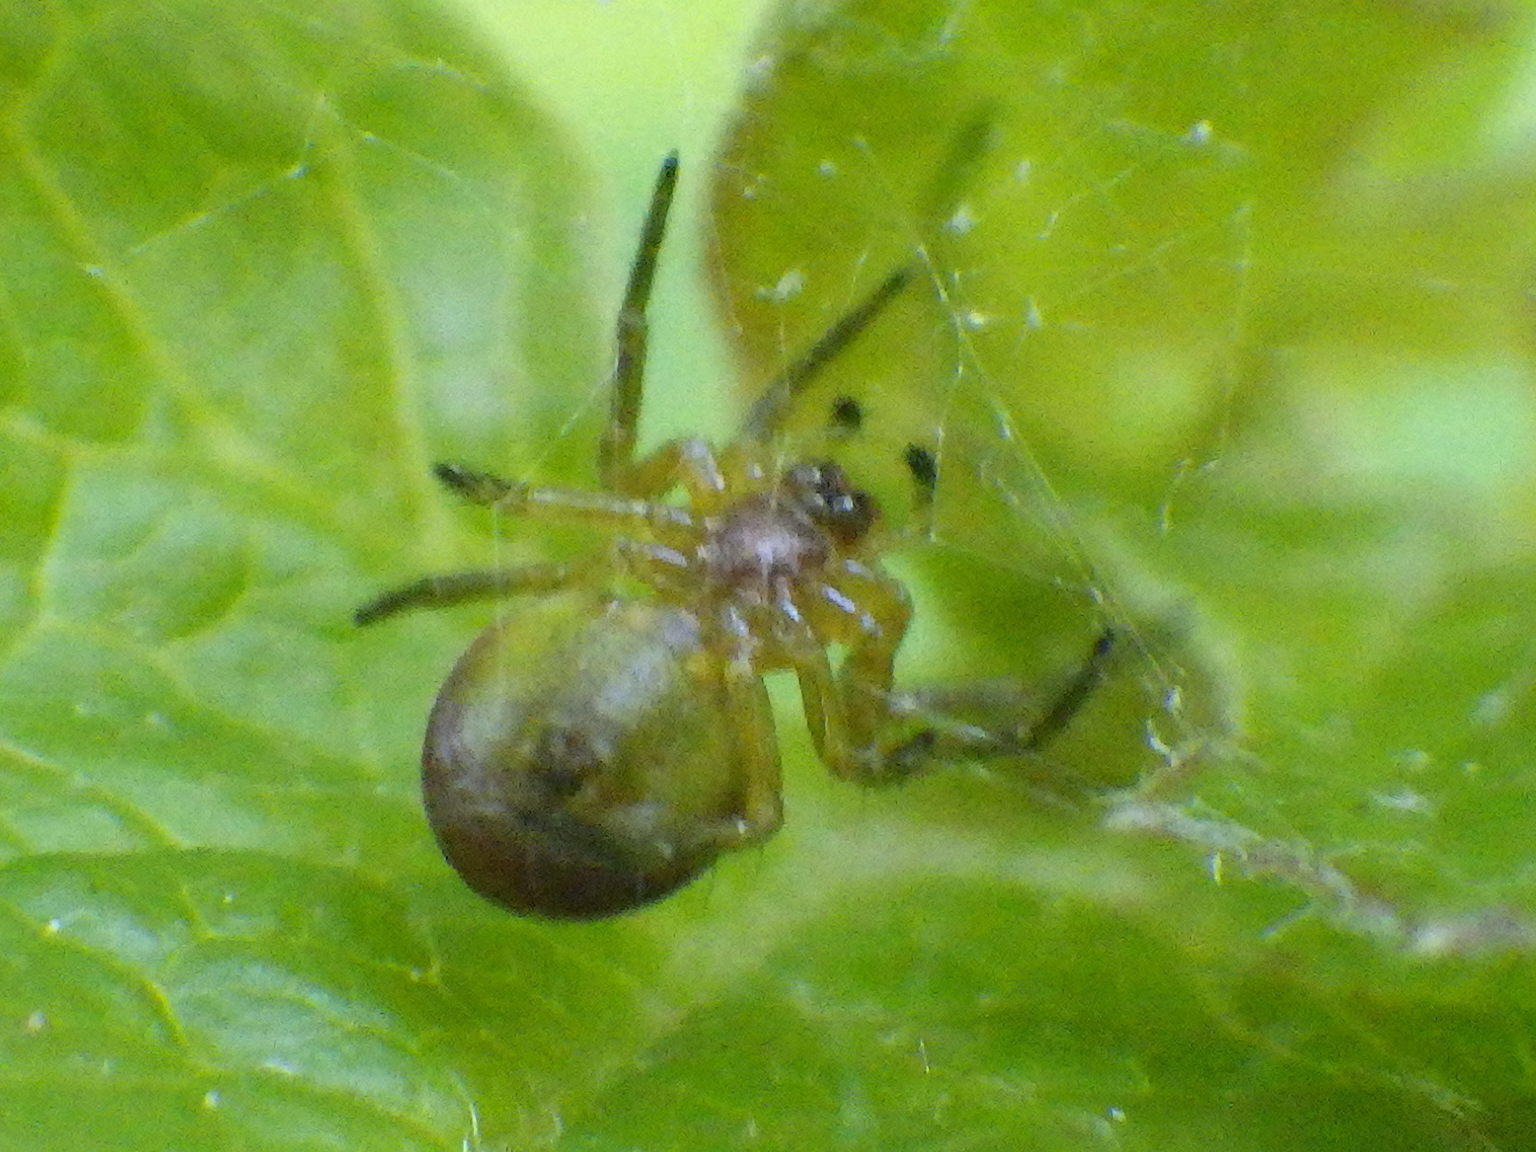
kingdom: Animalia
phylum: Arthropoda
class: Arachnida
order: Araneae
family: Araneidae
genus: Araniella
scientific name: Araniella displicata
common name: Sixspotted orb weaver
